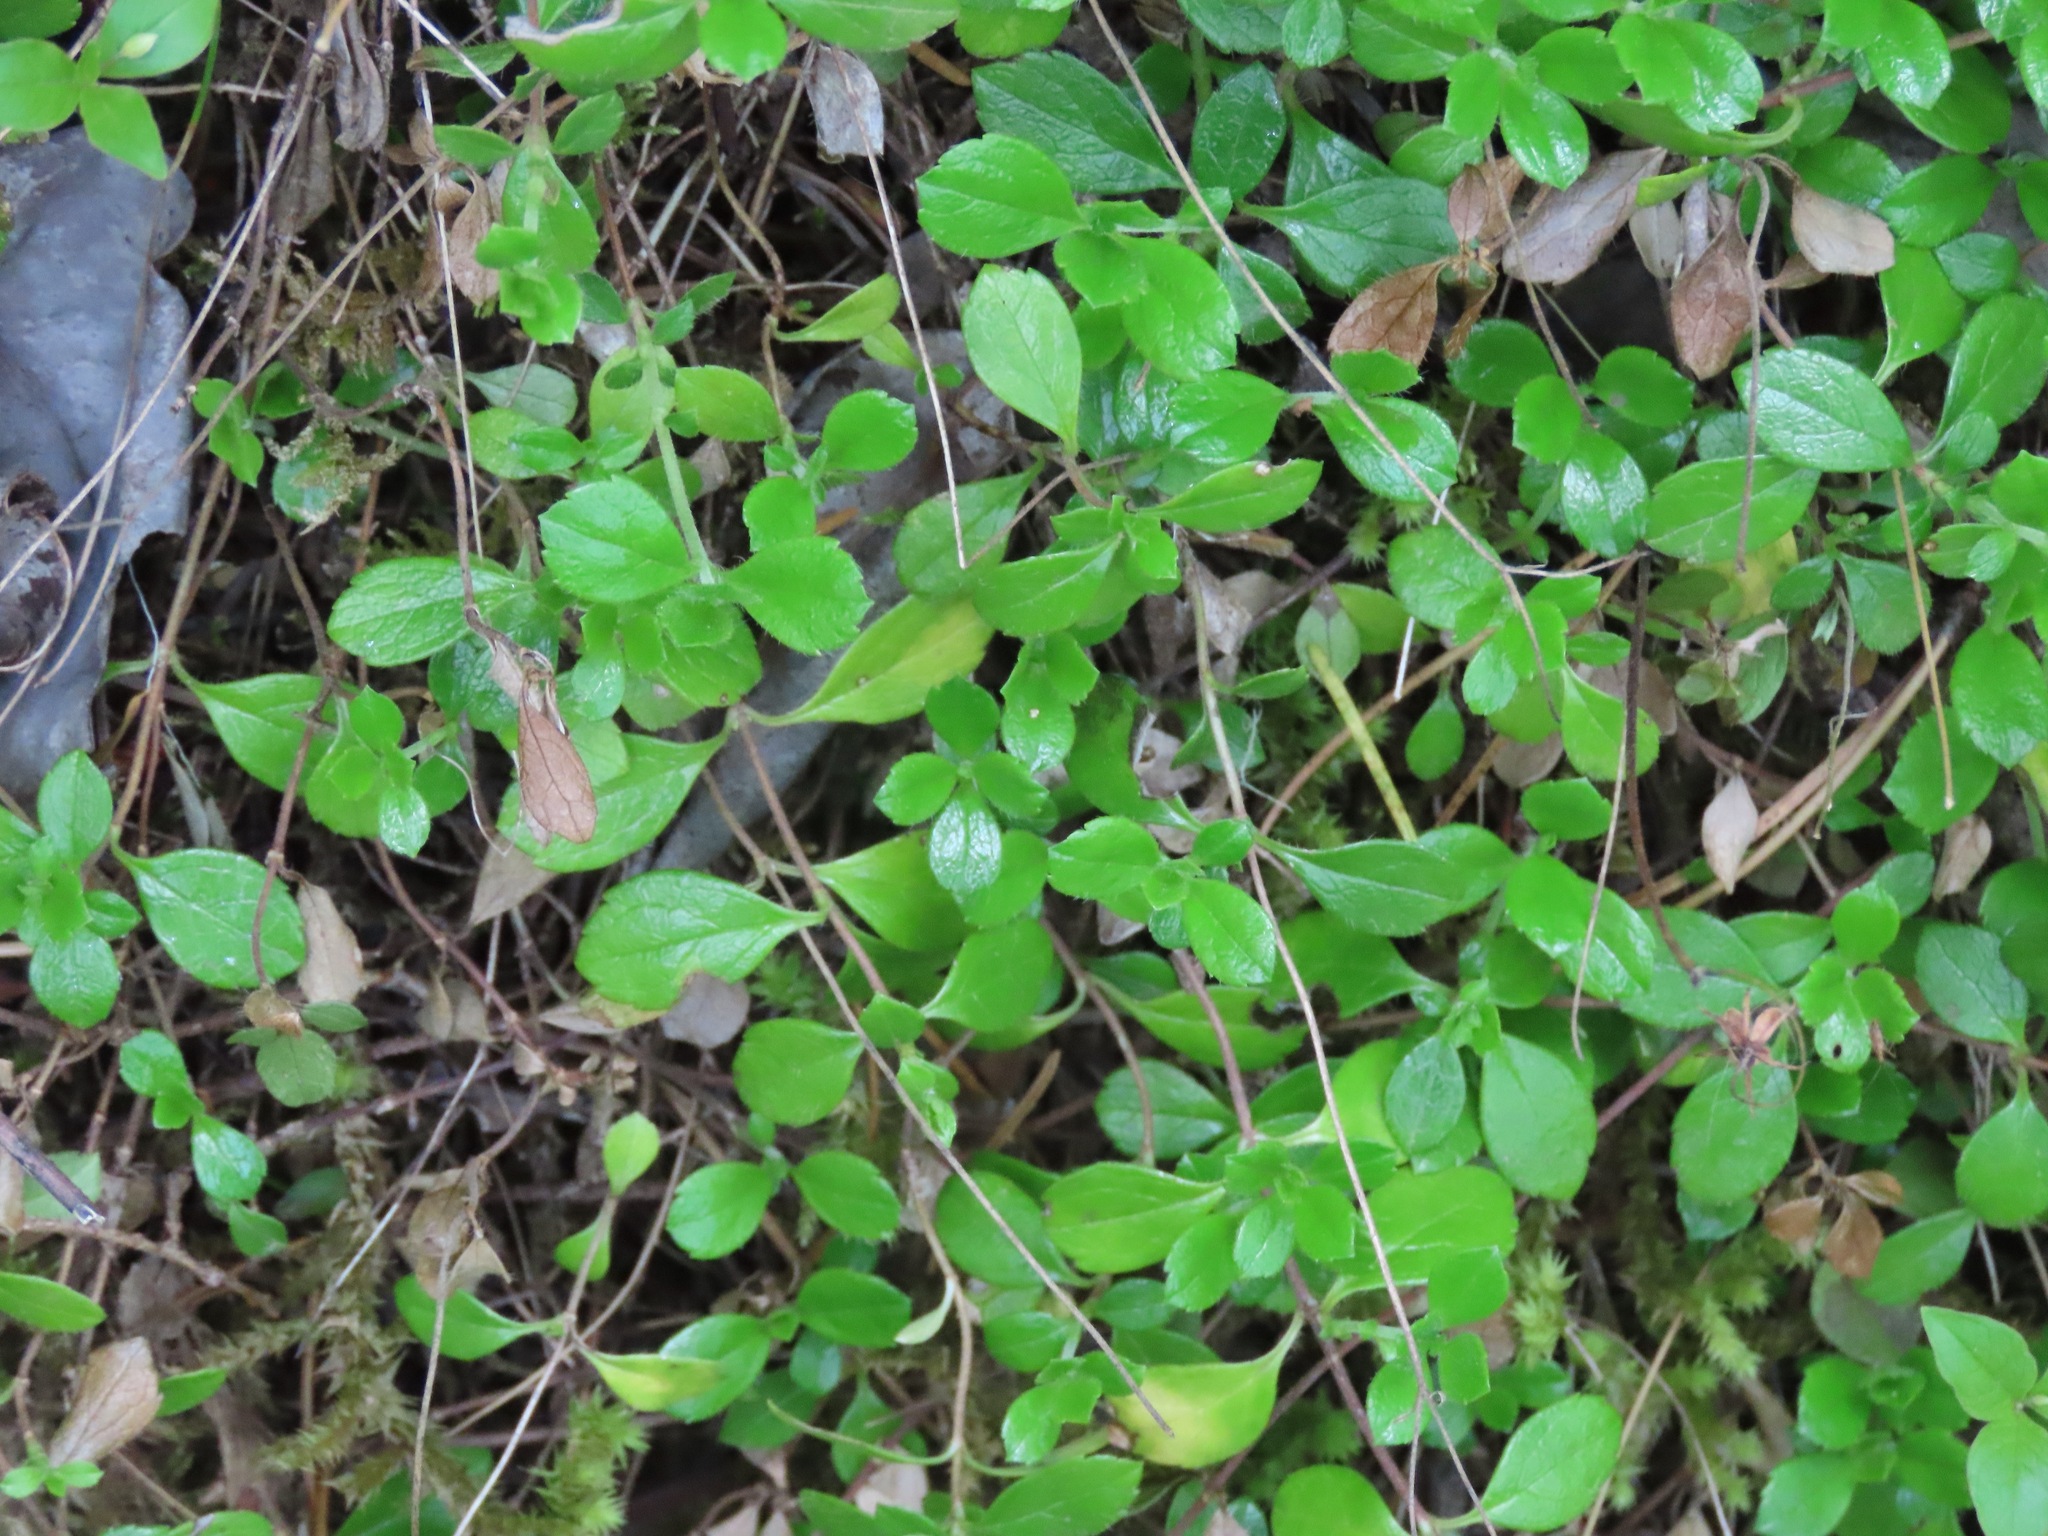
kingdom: Plantae
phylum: Tracheophyta
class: Magnoliopsida
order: Dipsacales
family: Caprifoliaceae
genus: Linnaea
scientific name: Linnaea borealis
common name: Twinflower
